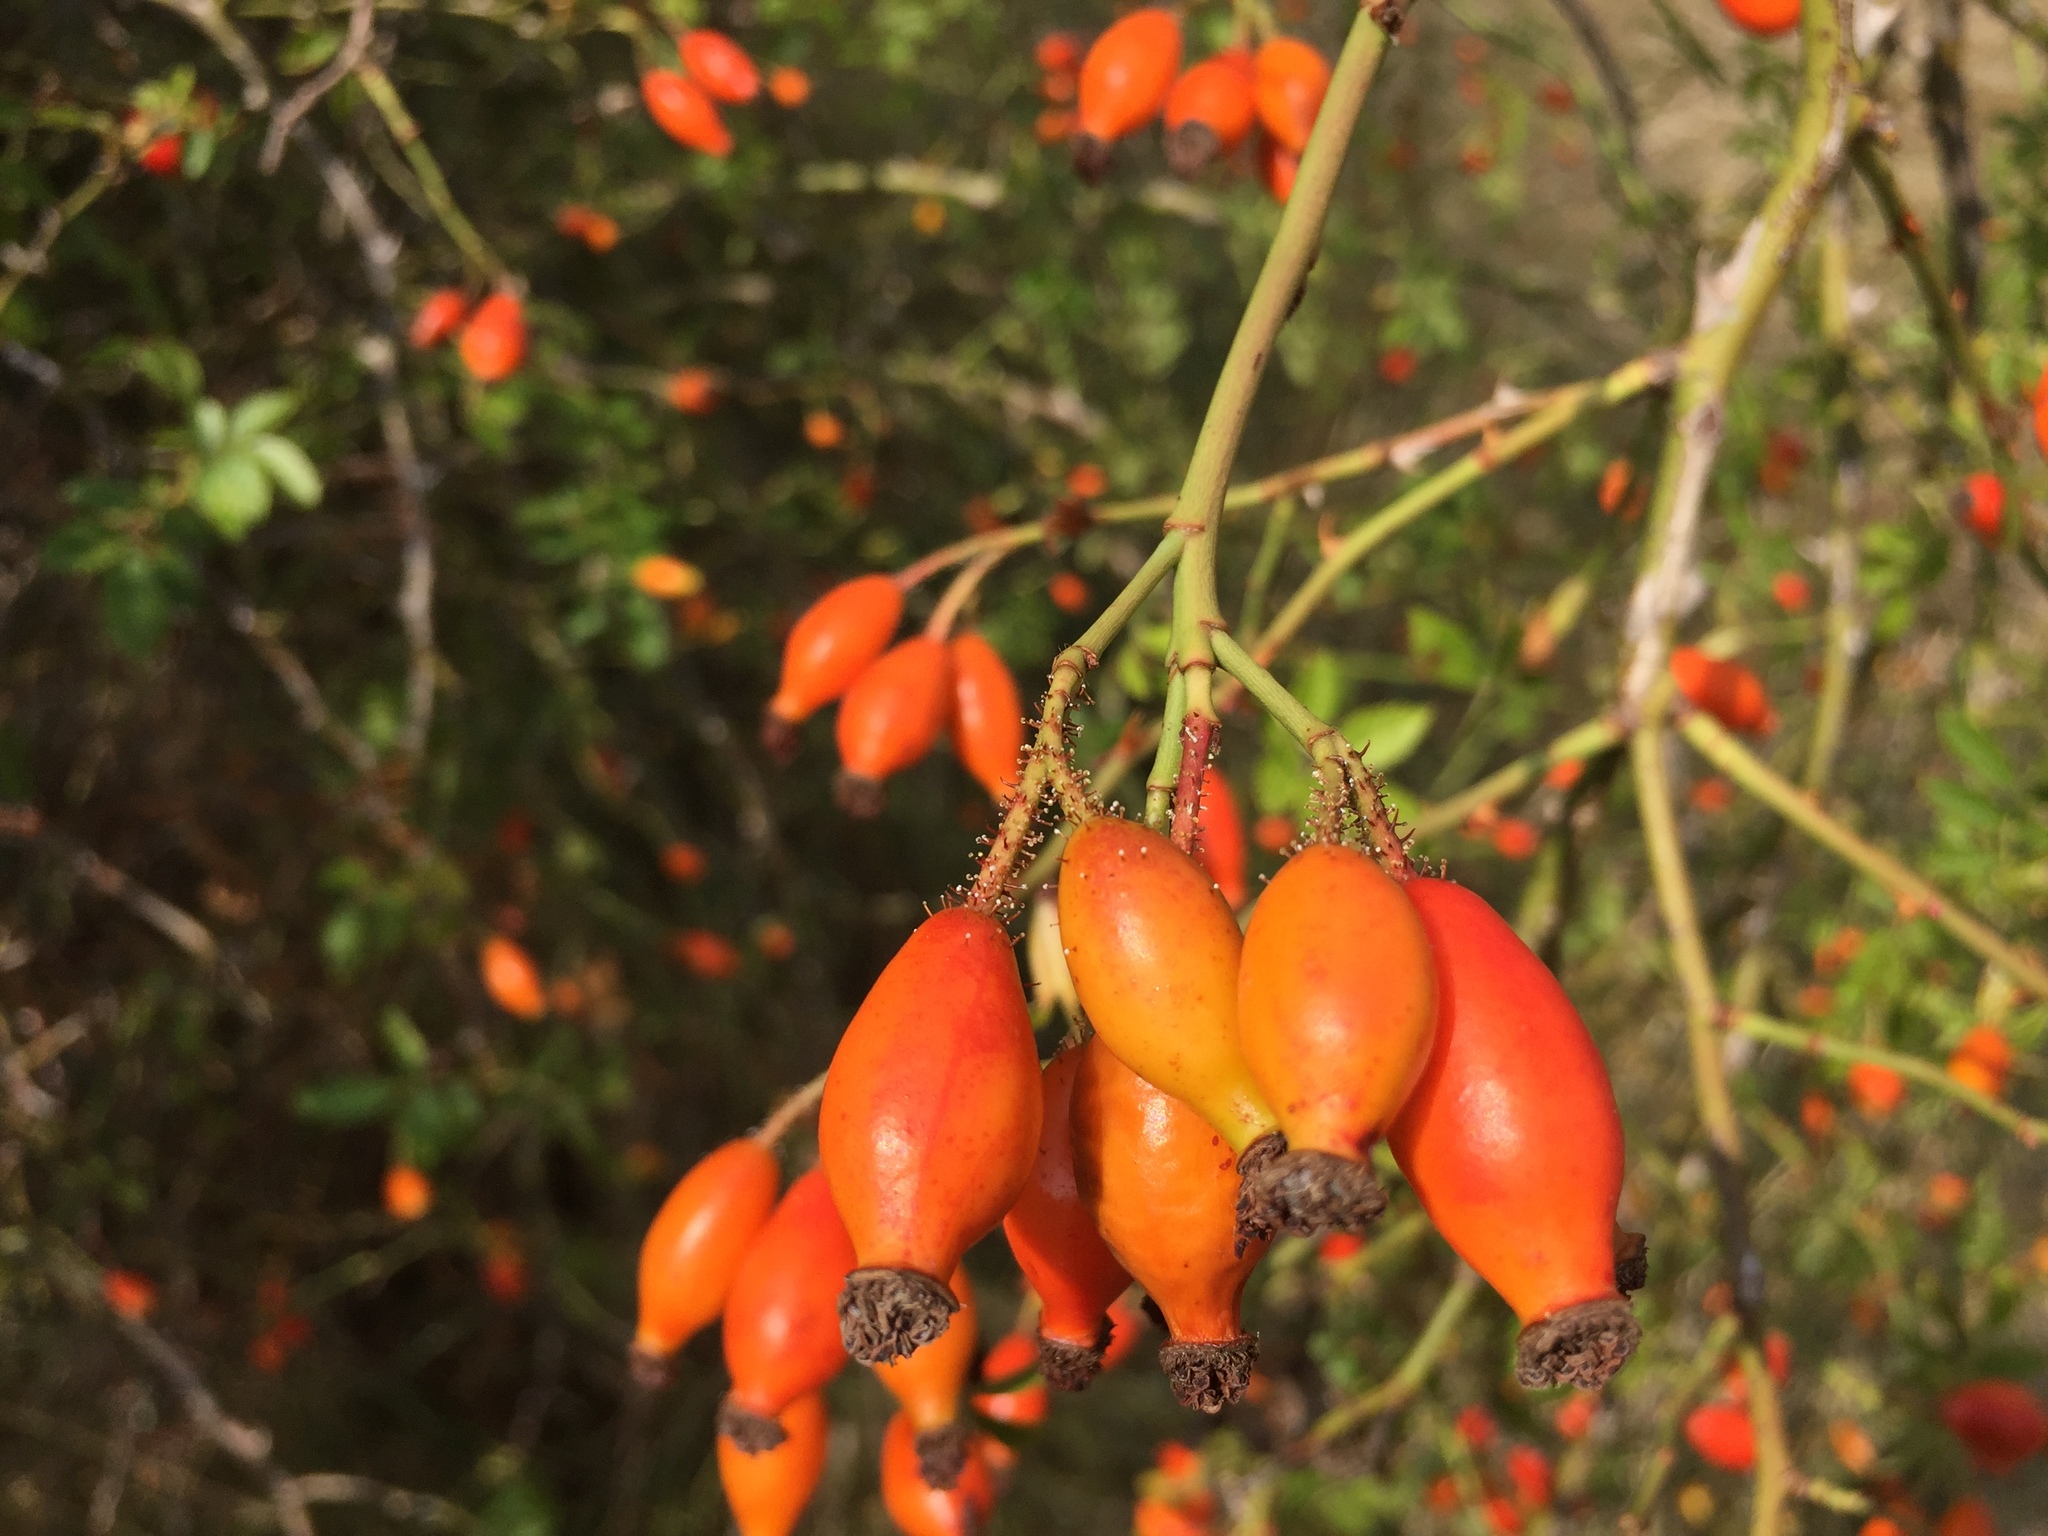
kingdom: Plantae
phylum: Tracheophyta
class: Magnoliopsida
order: Rosales
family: Rosaceae
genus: Rosa
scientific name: Rosa micrantha
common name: Small-flowered sweet-briar
